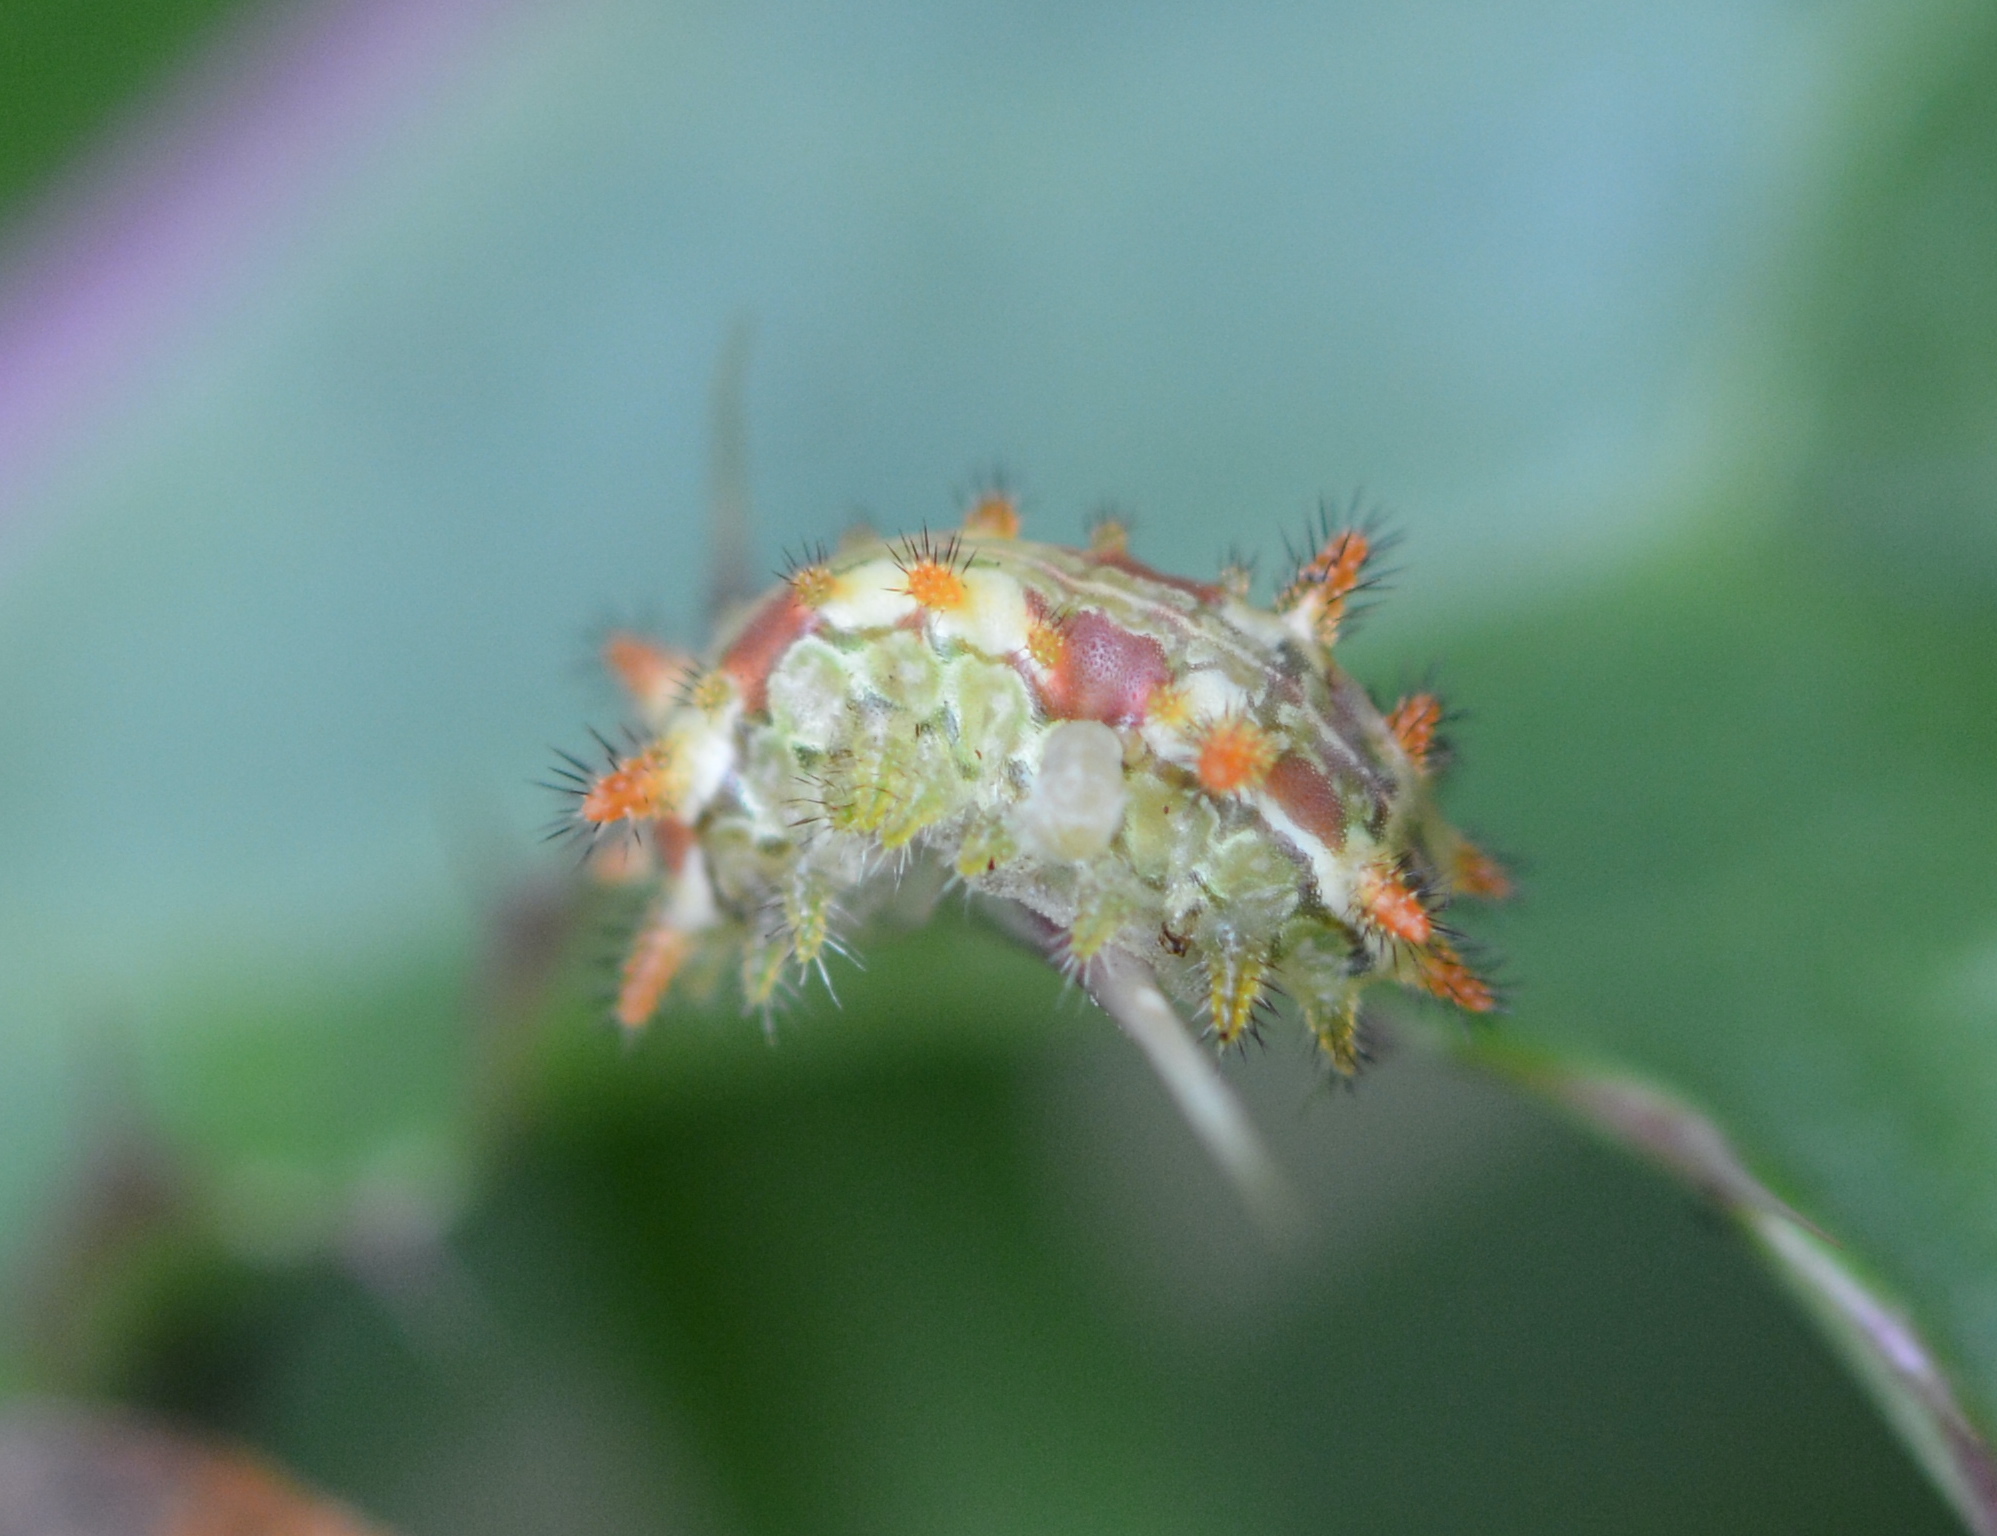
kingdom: Animalia
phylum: Arthropoda
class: Insecta
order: Lepidoptera
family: Limacodidae
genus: Euclea
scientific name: Euclea delphinii
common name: Spiny oak-slug moth
